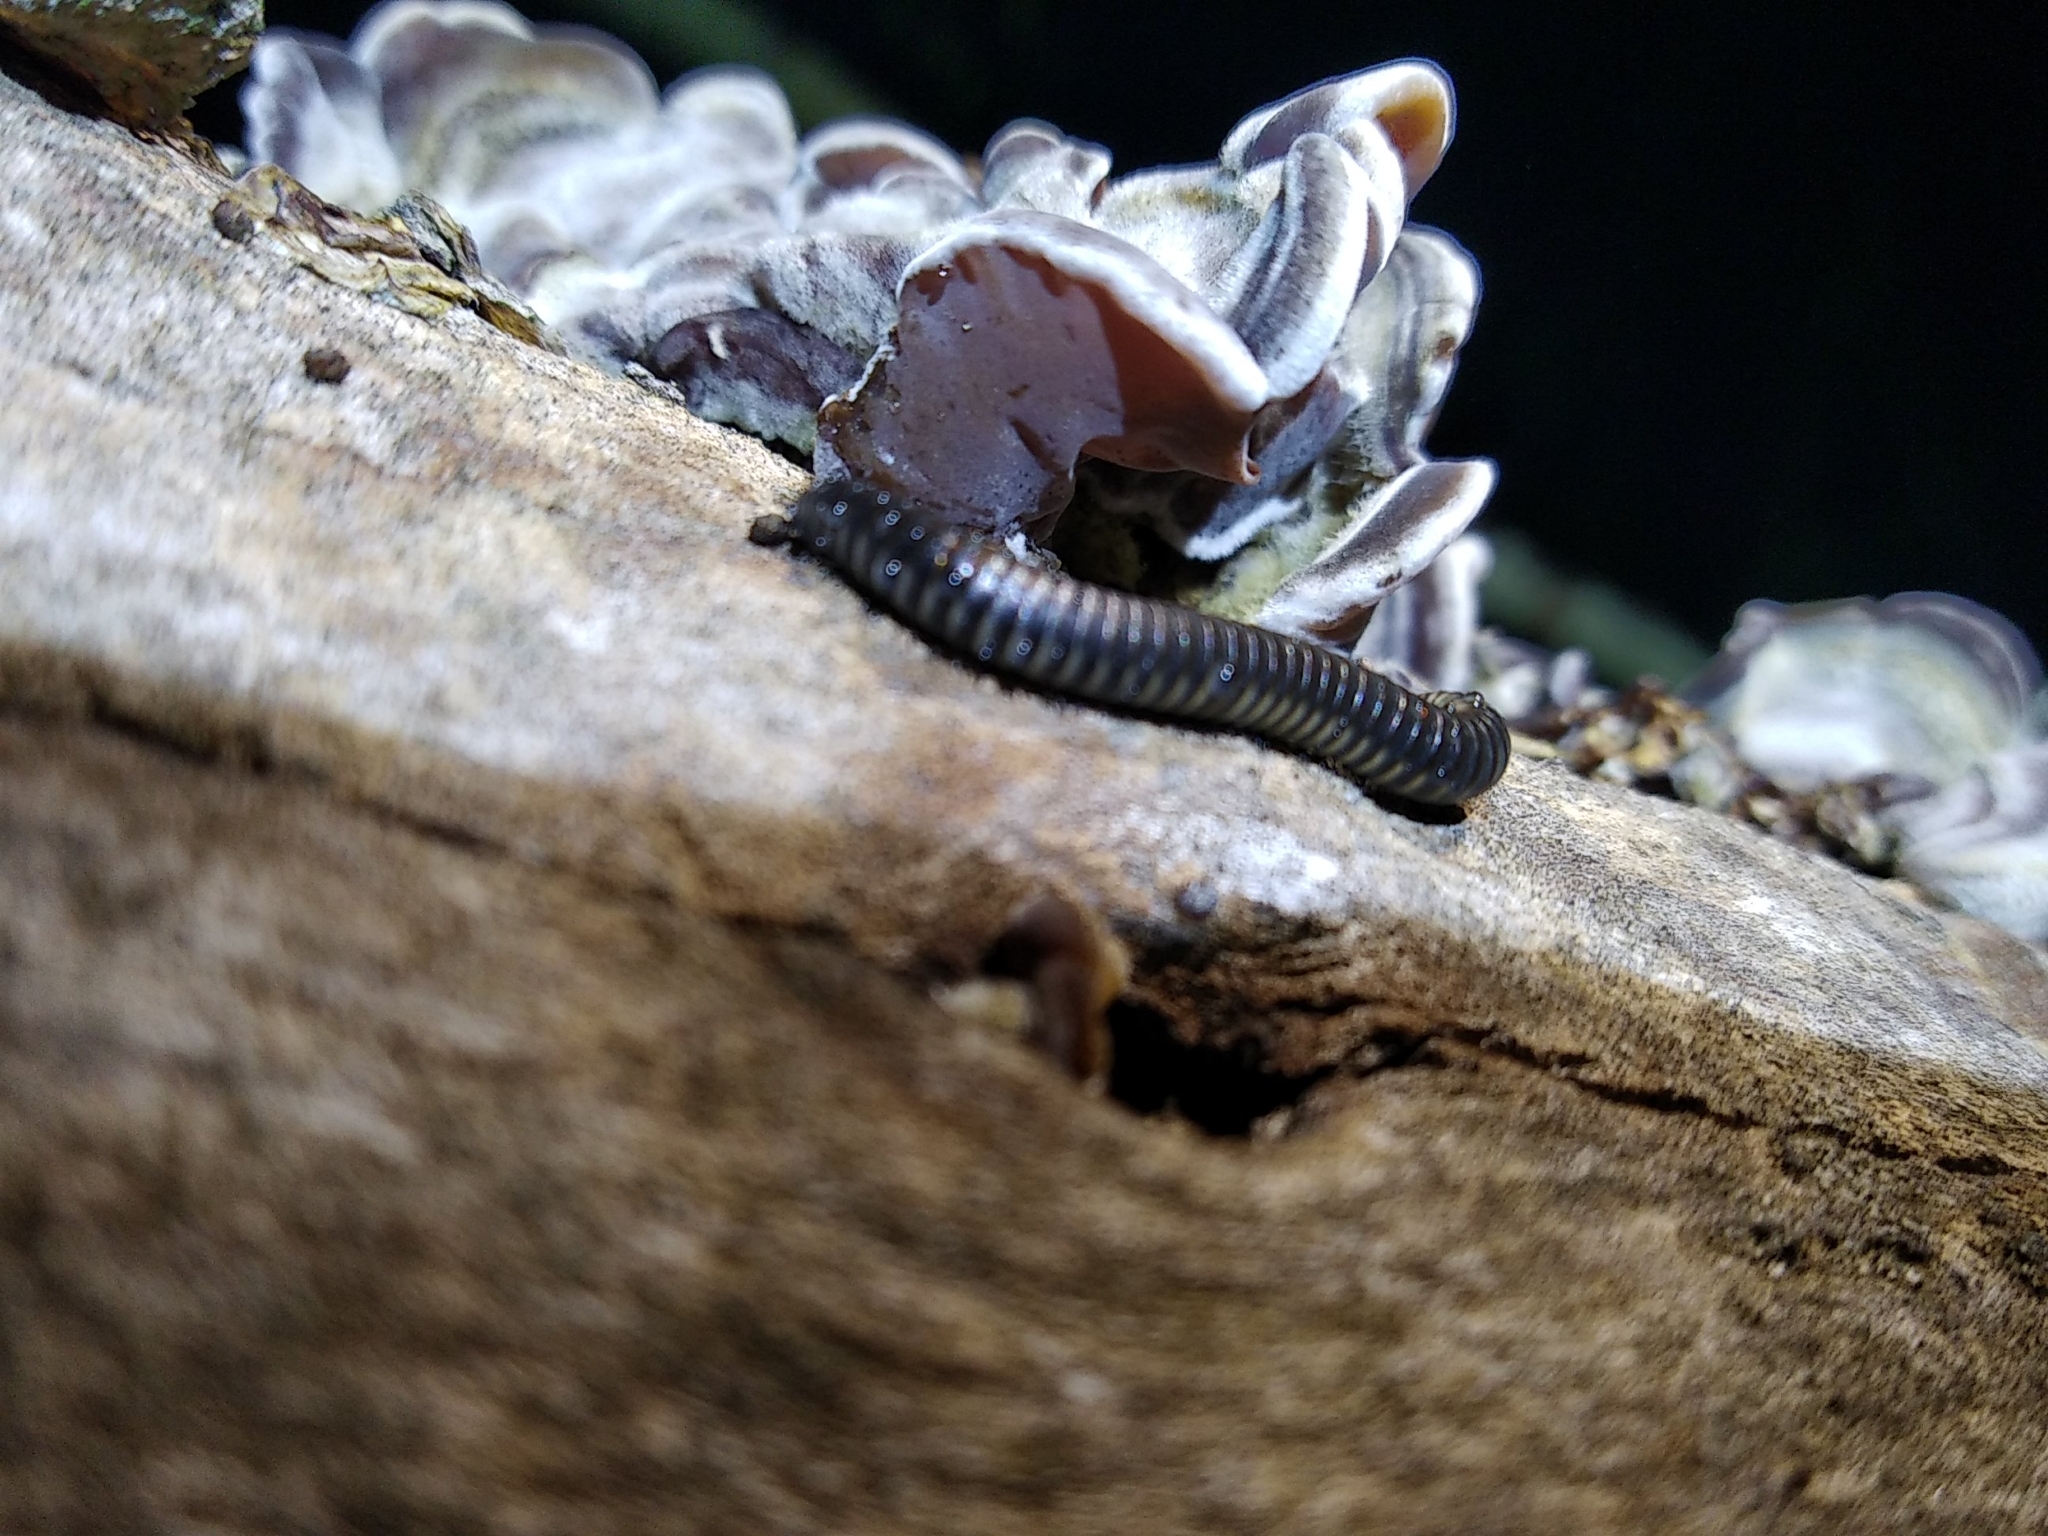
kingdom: Animalia
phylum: Arthropoda
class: Diplopoda
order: Julida
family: Julidae
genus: Ommatoiulus
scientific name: Ommatoiulus rutilans
